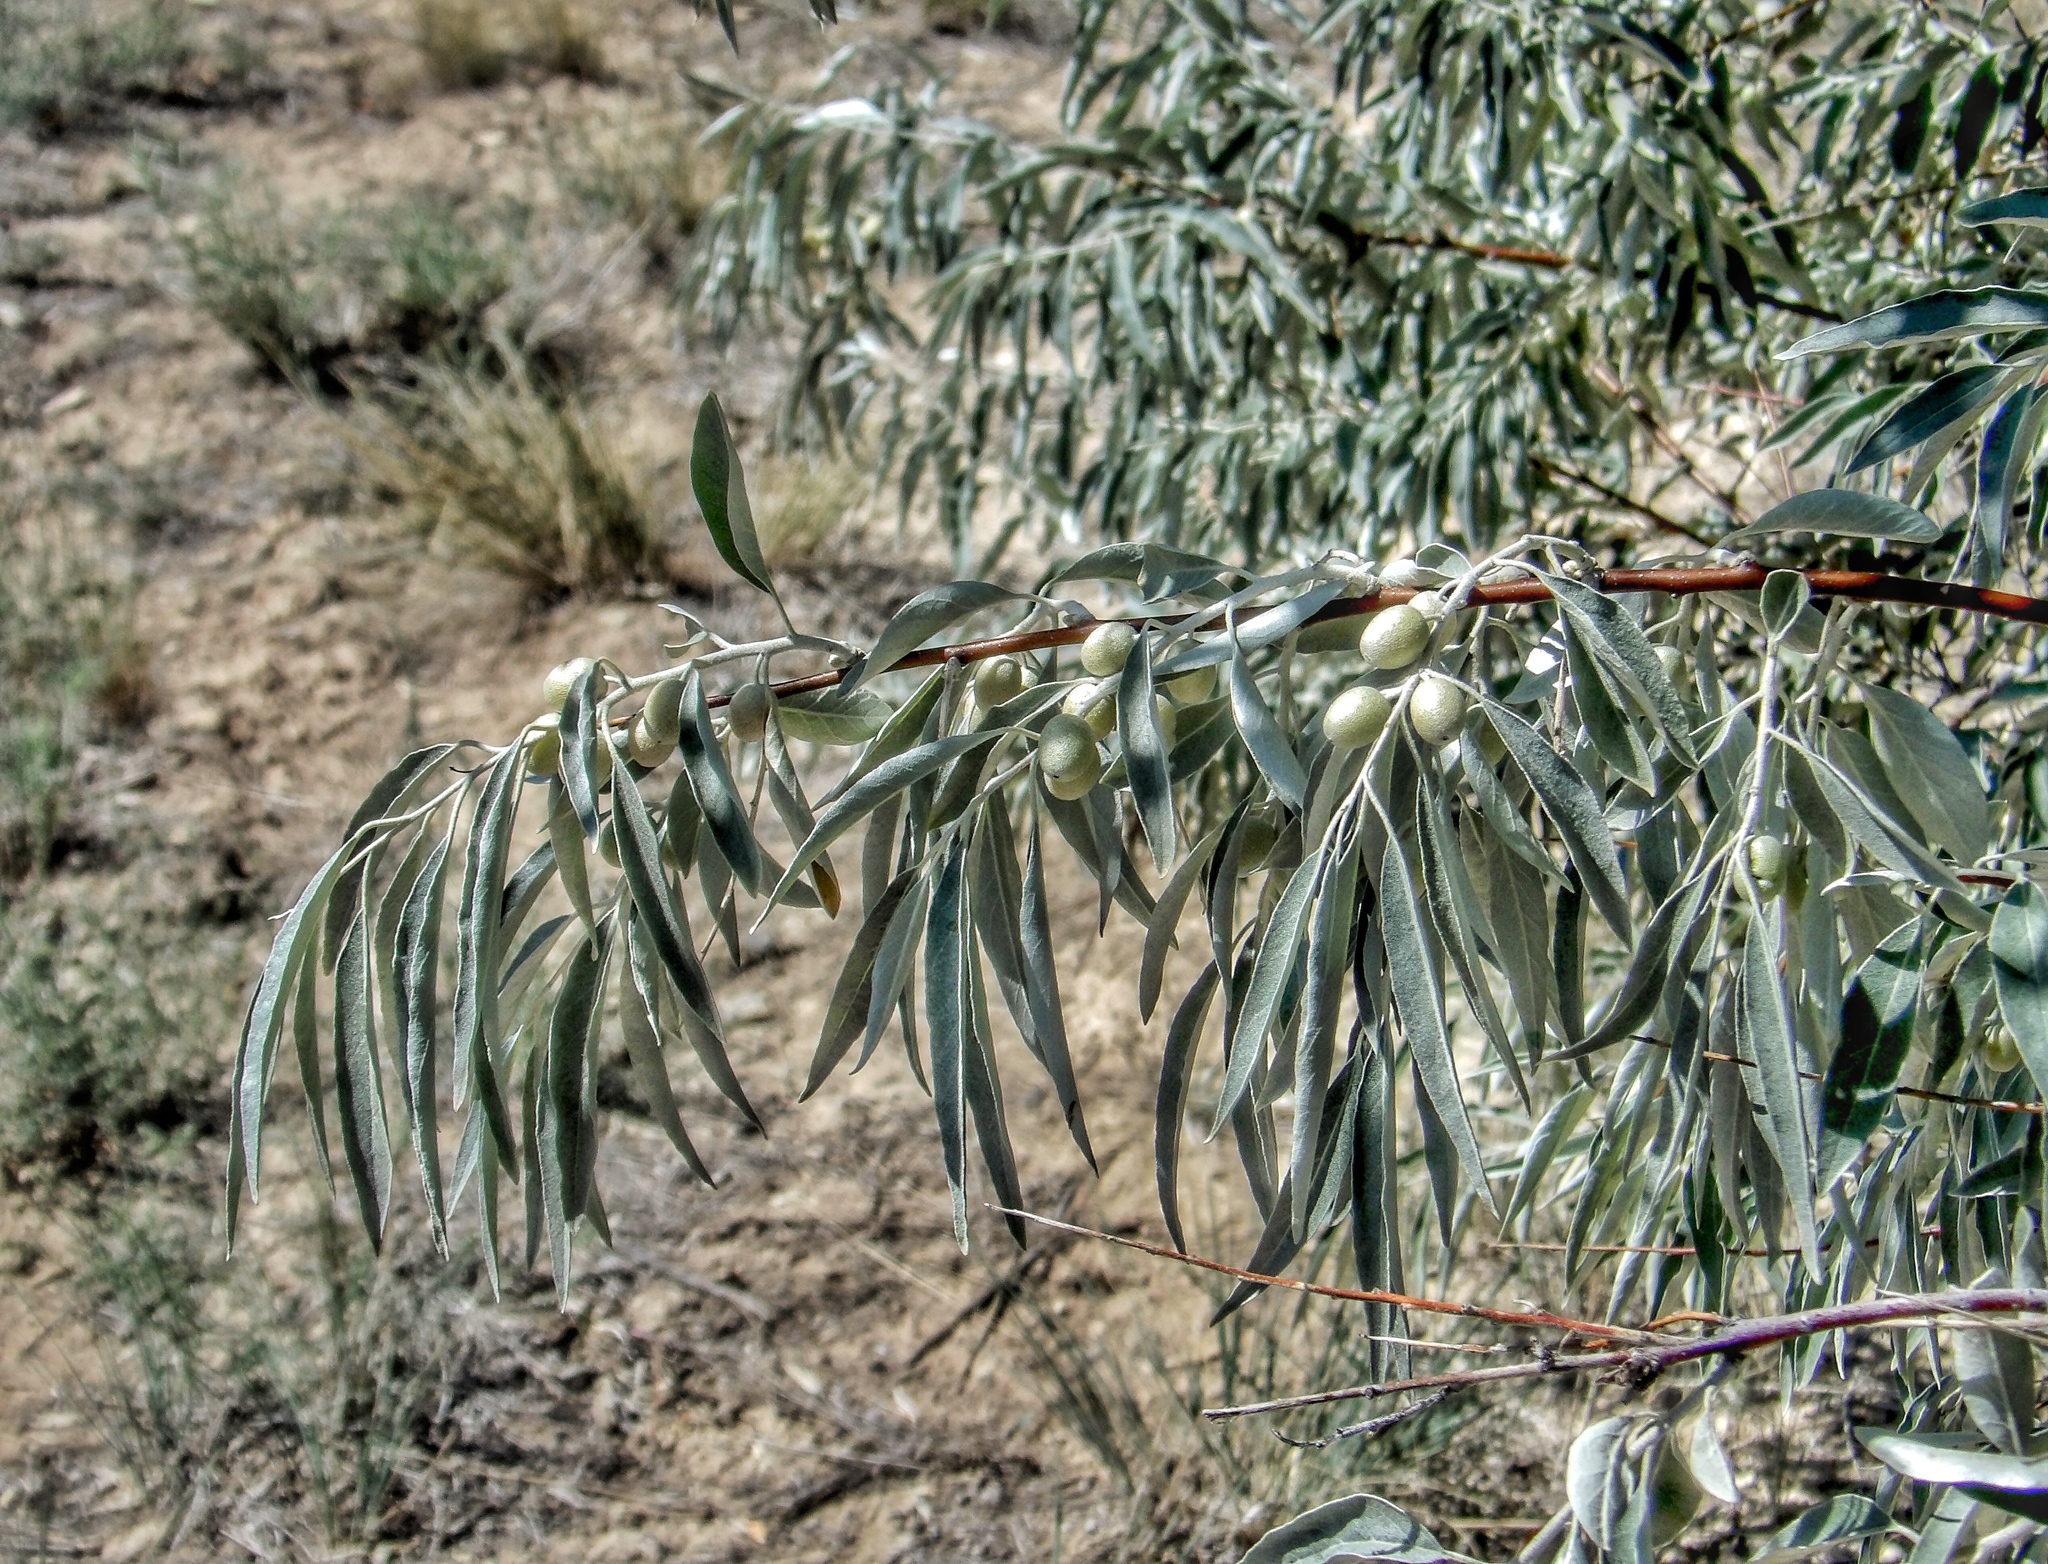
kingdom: Plantae
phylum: Tracheophyta
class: Magnoliopsida
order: Rosales
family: Elaeagnaceae
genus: Elaeagnus
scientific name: Elaeagnus angustifolia
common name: Russian olive
